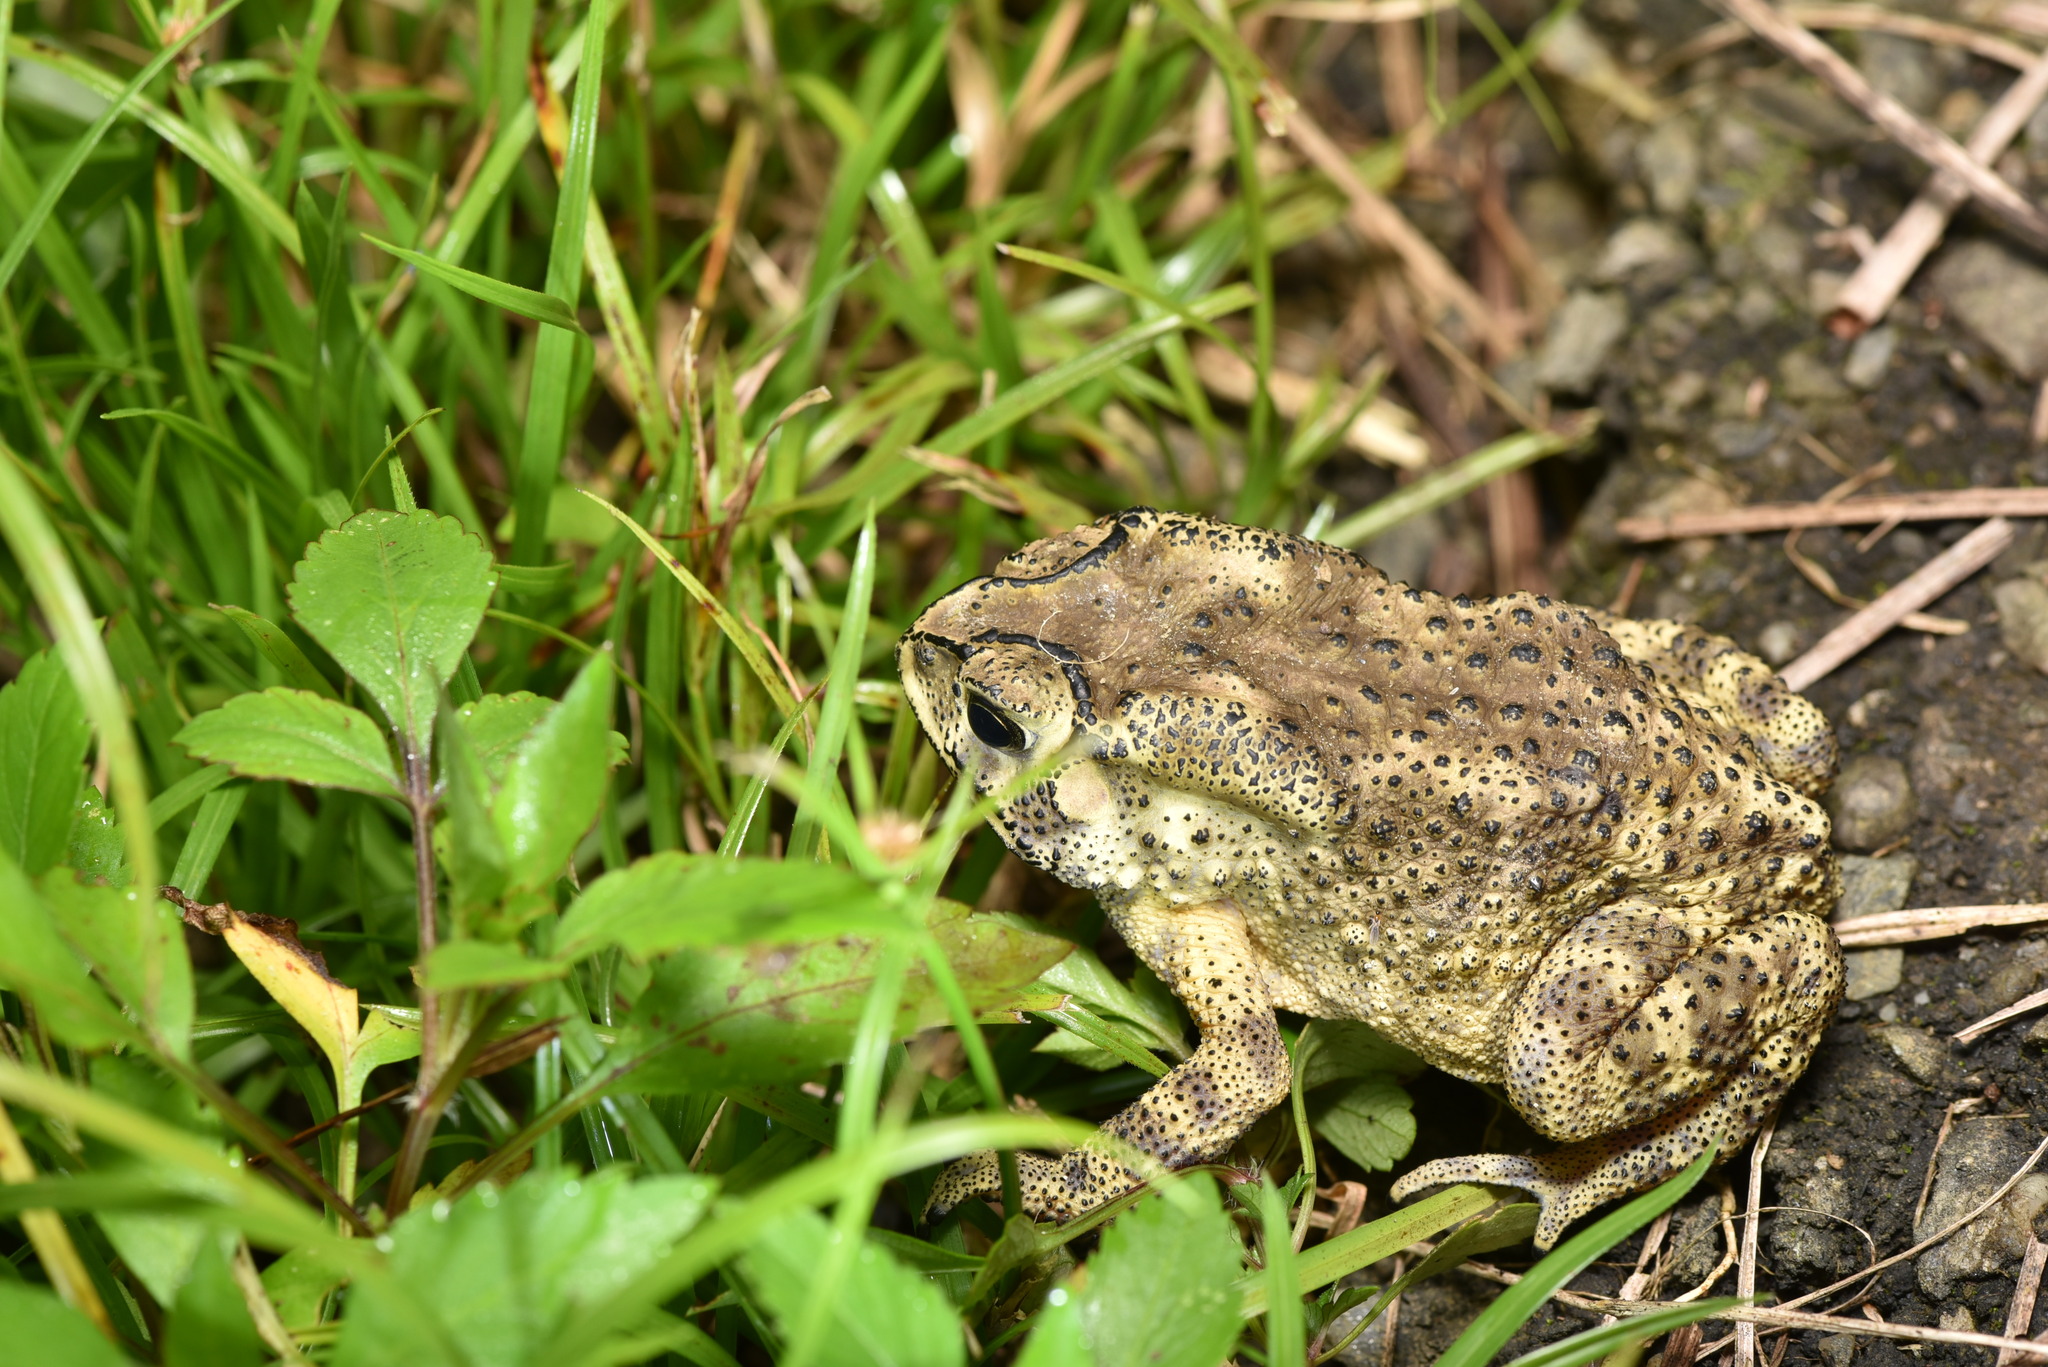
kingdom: Animalia
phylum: Chordata
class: Amphibia
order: Anura
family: Bufonidae
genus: Duttaphrynus
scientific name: Duttaphrynus melanostictus
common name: Common sunda toad
